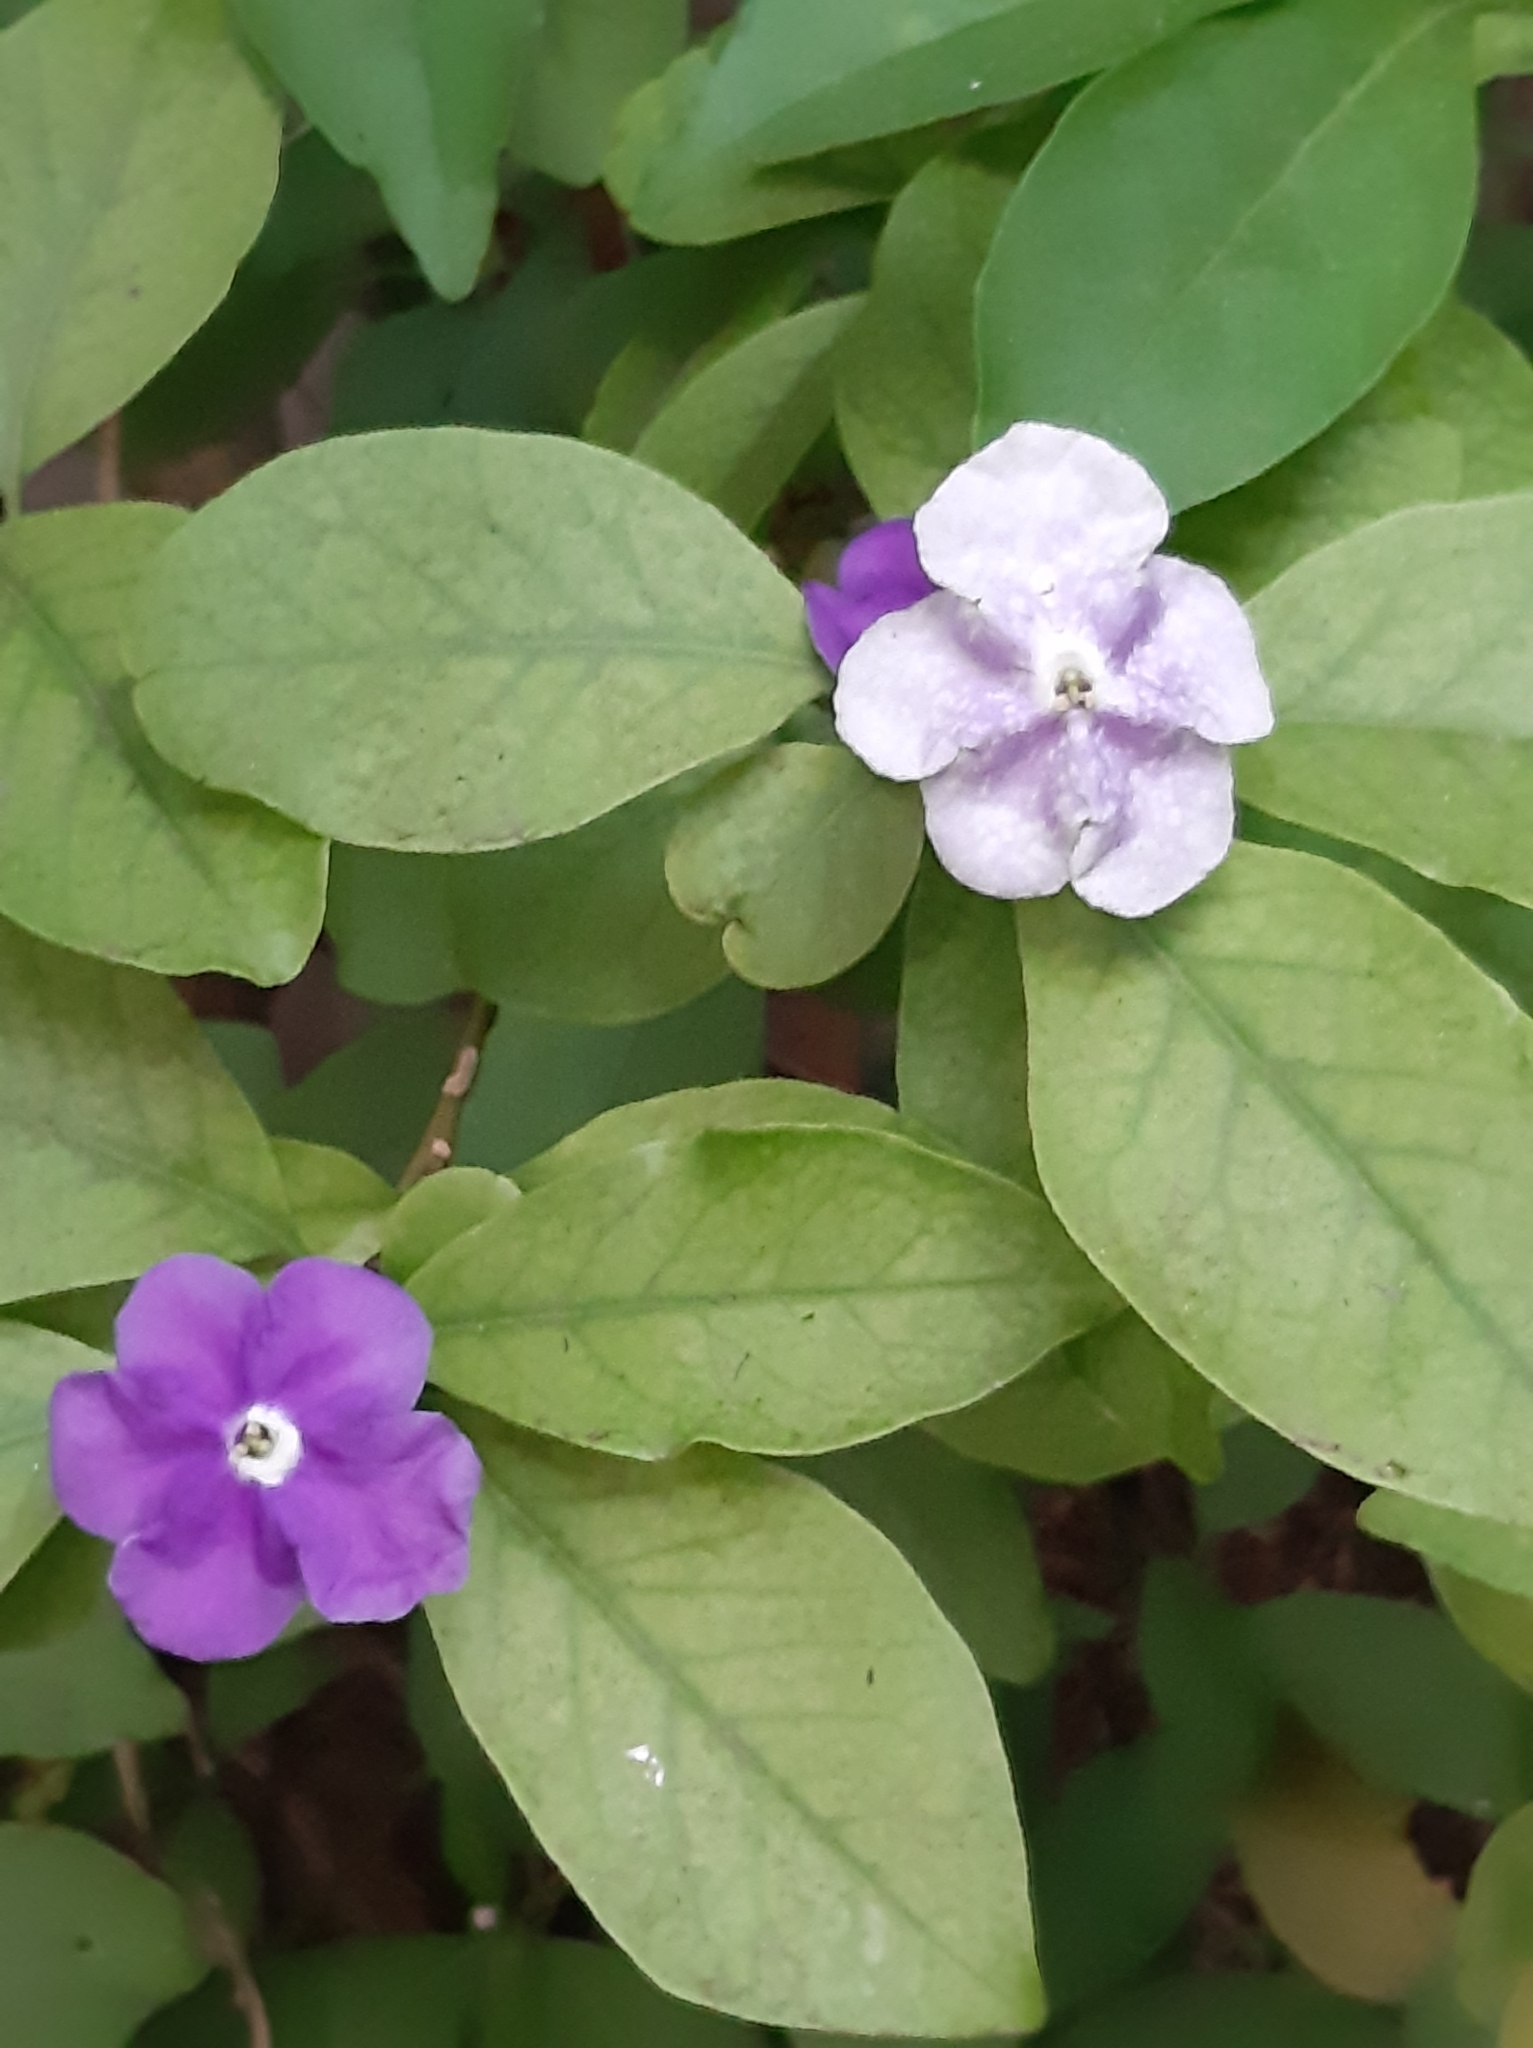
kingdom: Plantae
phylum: Tracheophyta
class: Magnoliopsida
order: Solanales
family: Solanaceae
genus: Brunfelsia
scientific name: Brunfelsia australis
